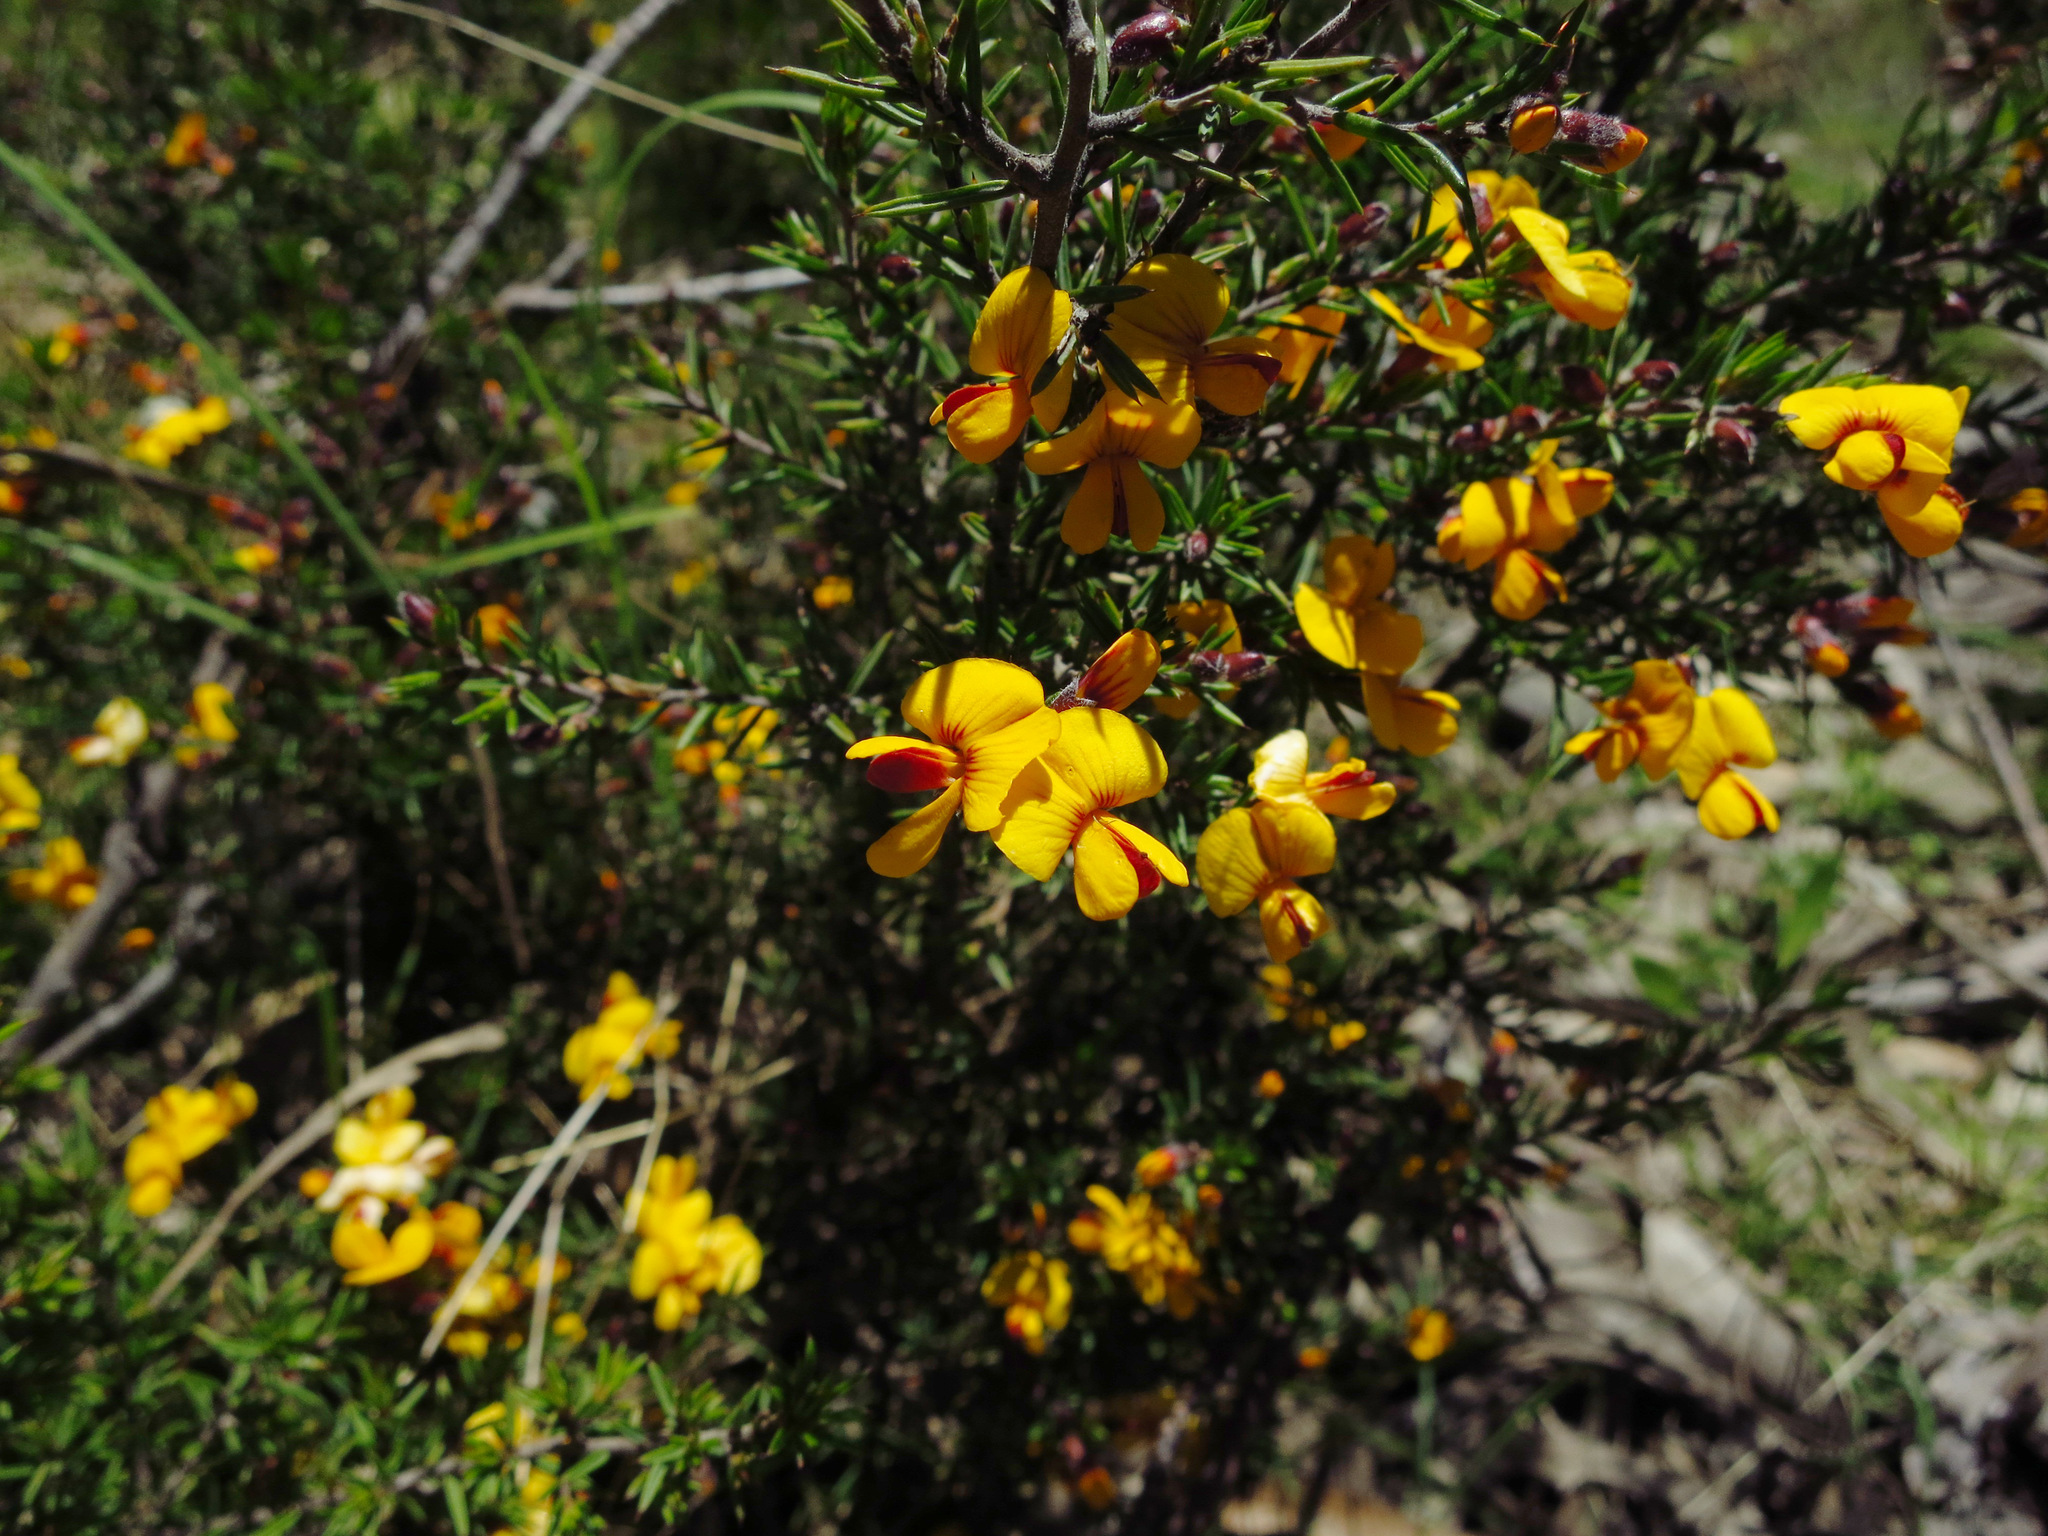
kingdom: Plantae
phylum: Tracheophyta
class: Magnoliopsida
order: Fabales
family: Fabaceae
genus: Pultenaea
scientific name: Pultenaea juniperina
